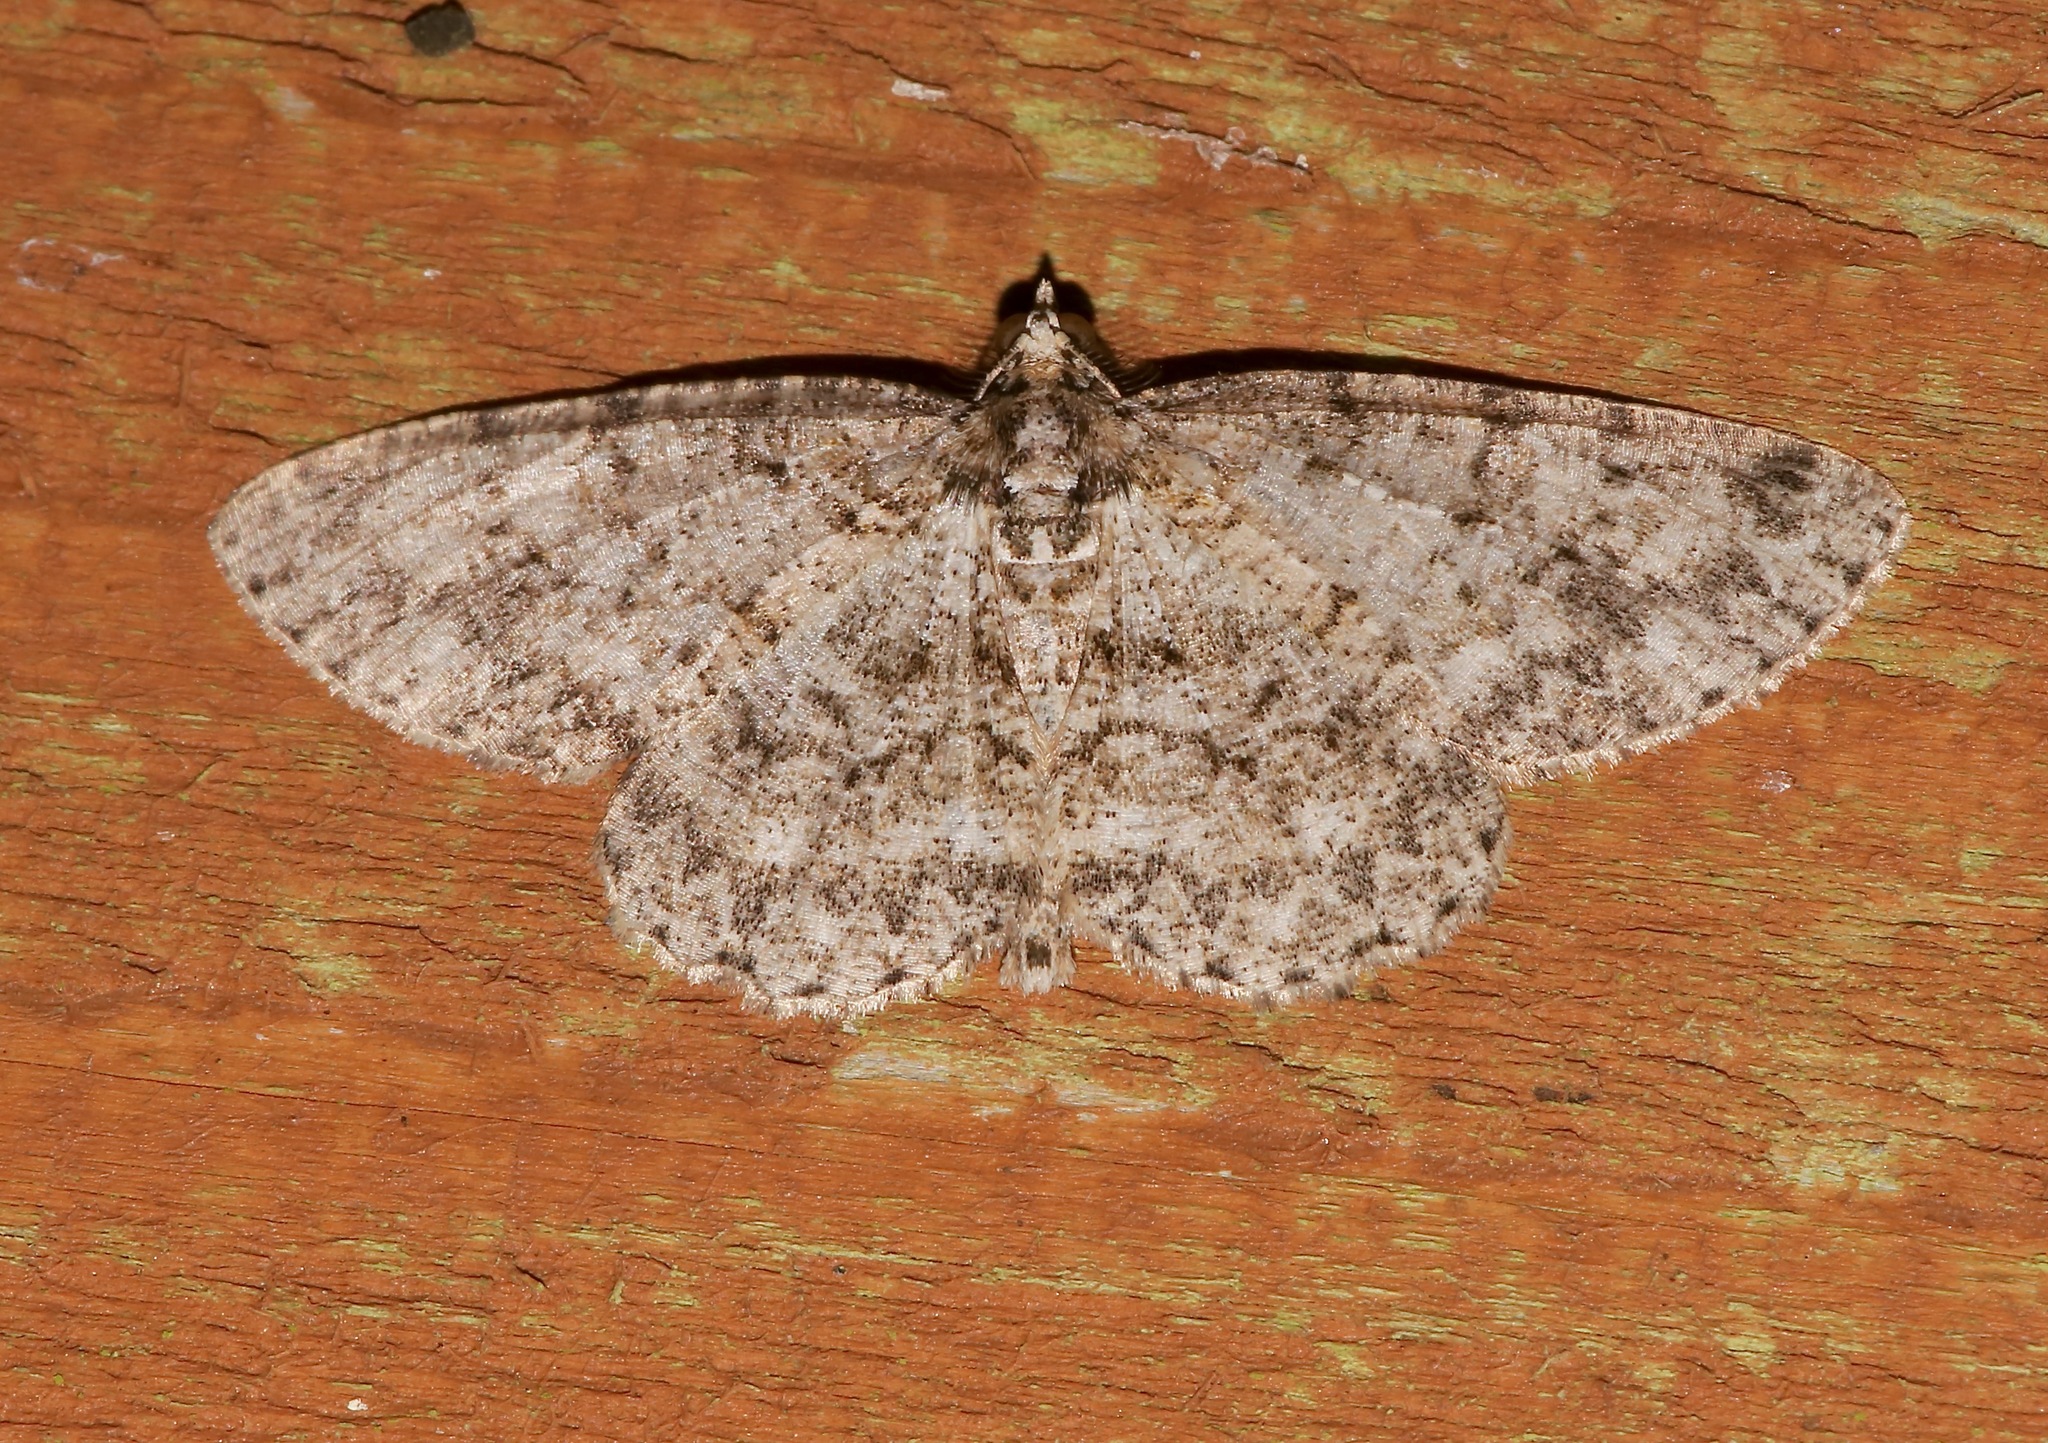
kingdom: Animalia
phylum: Arthropoda
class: Insecta
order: Lepidoptera
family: Geometridae
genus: Protoboarmia
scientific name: Protoboarmia porcelaria
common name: Porcelain gray
